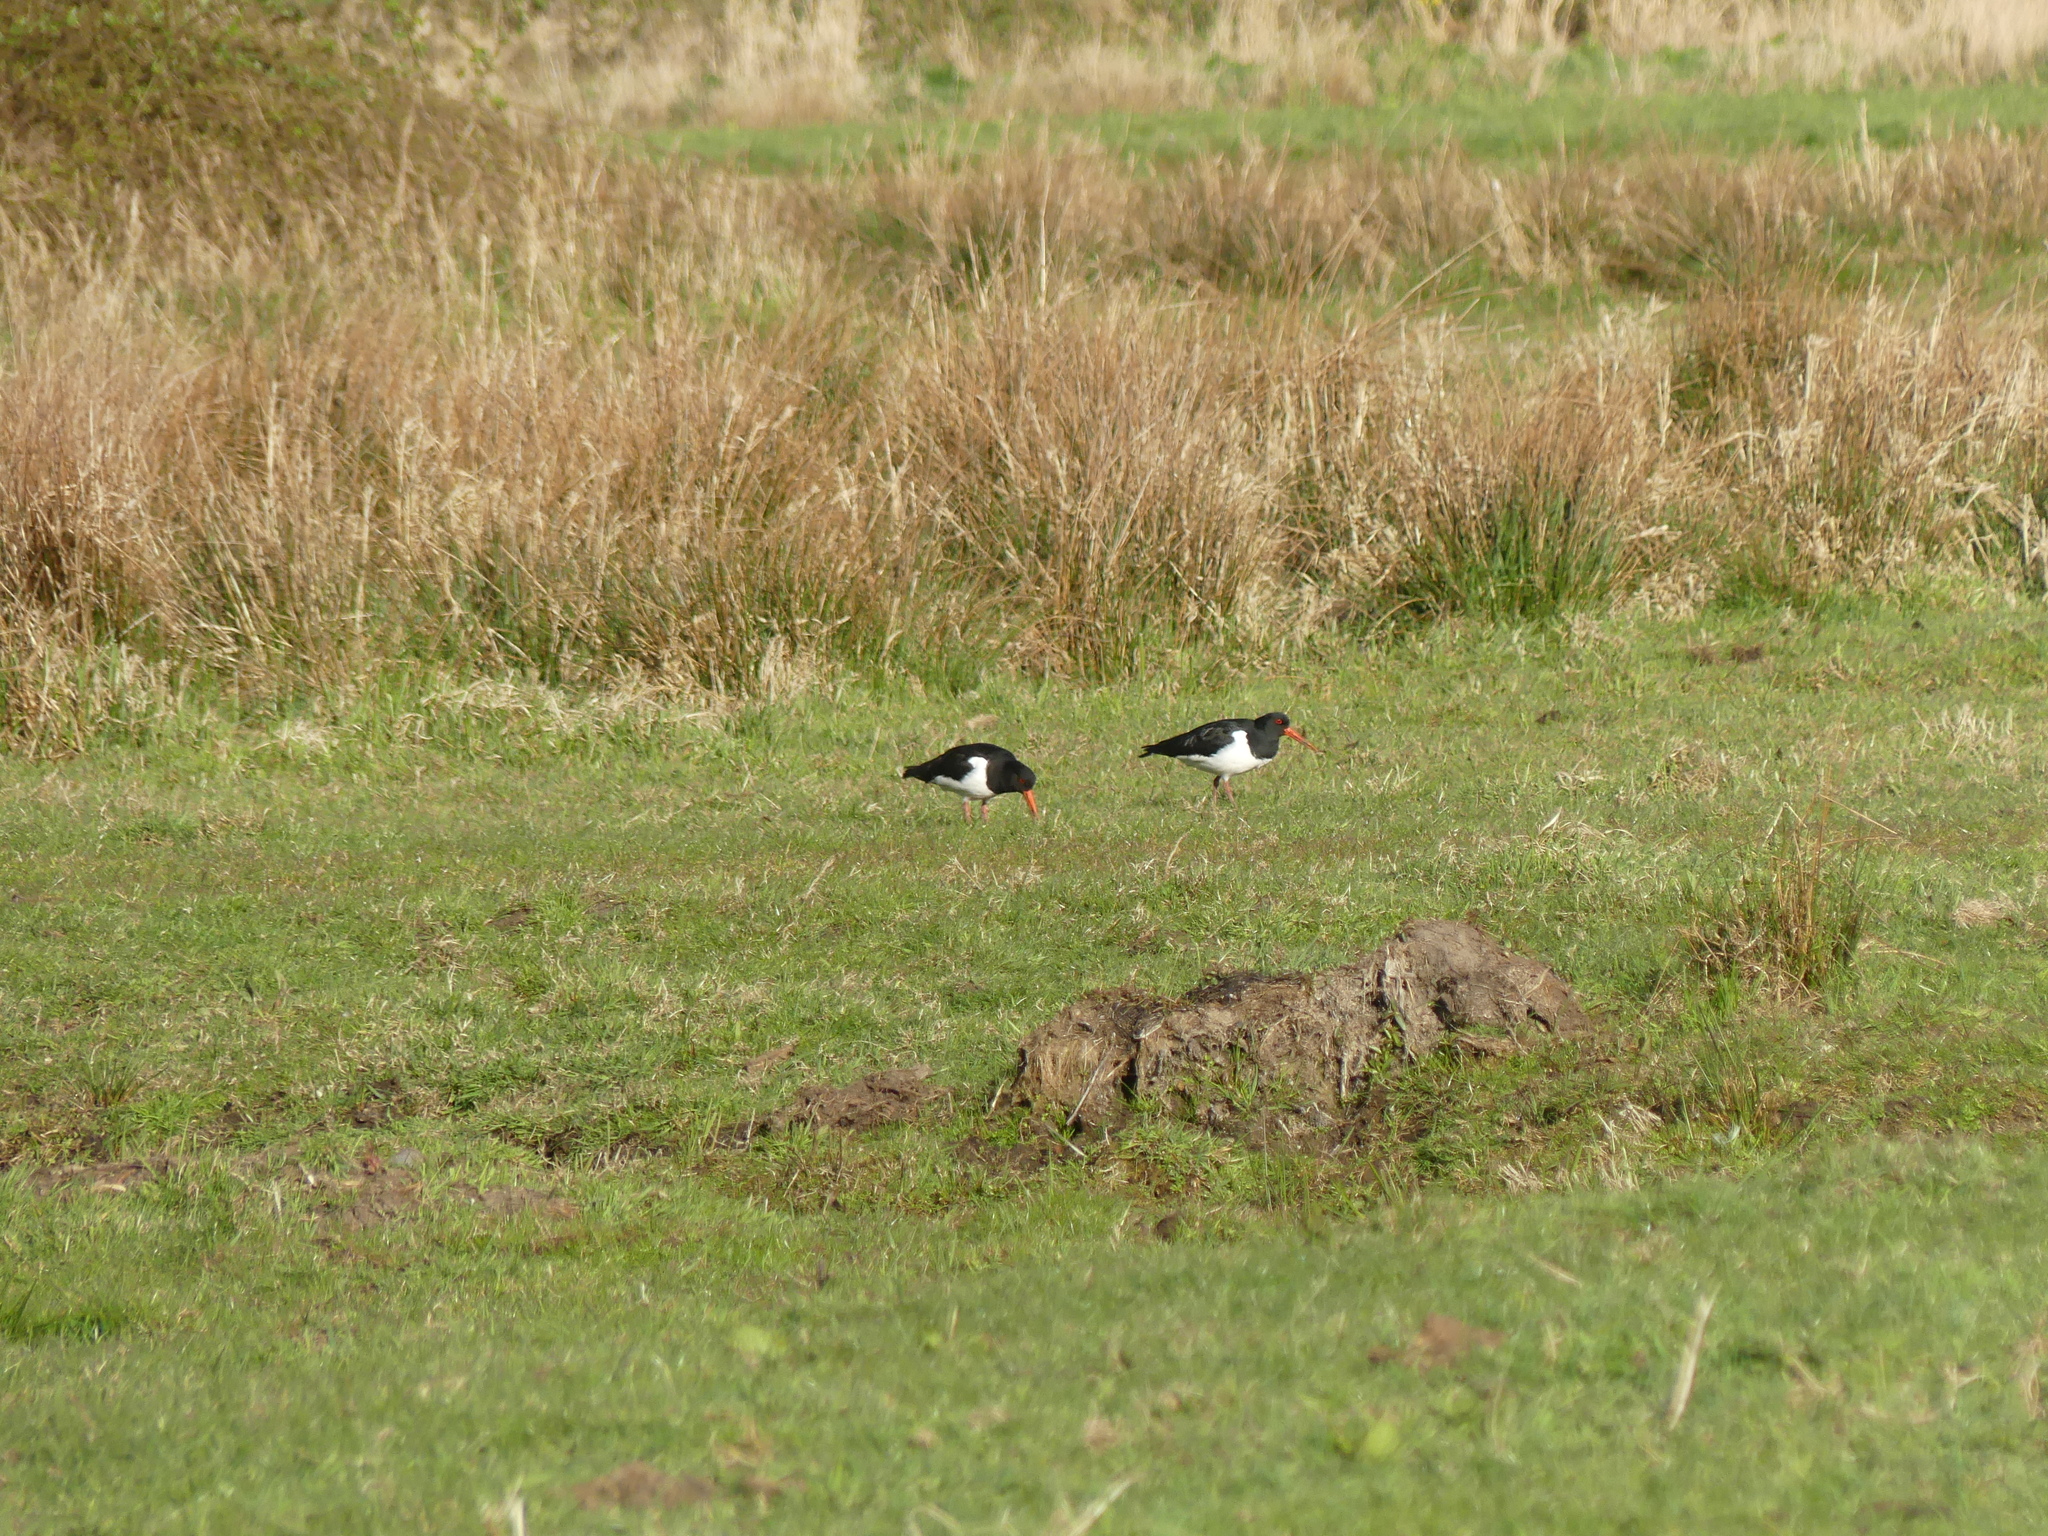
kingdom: Animalia
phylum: Chordata
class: Aves
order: Charadriiformes
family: Haematopodidae
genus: Haematopus
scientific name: Haematopus ostralegus
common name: Eurasian oystercatcher
